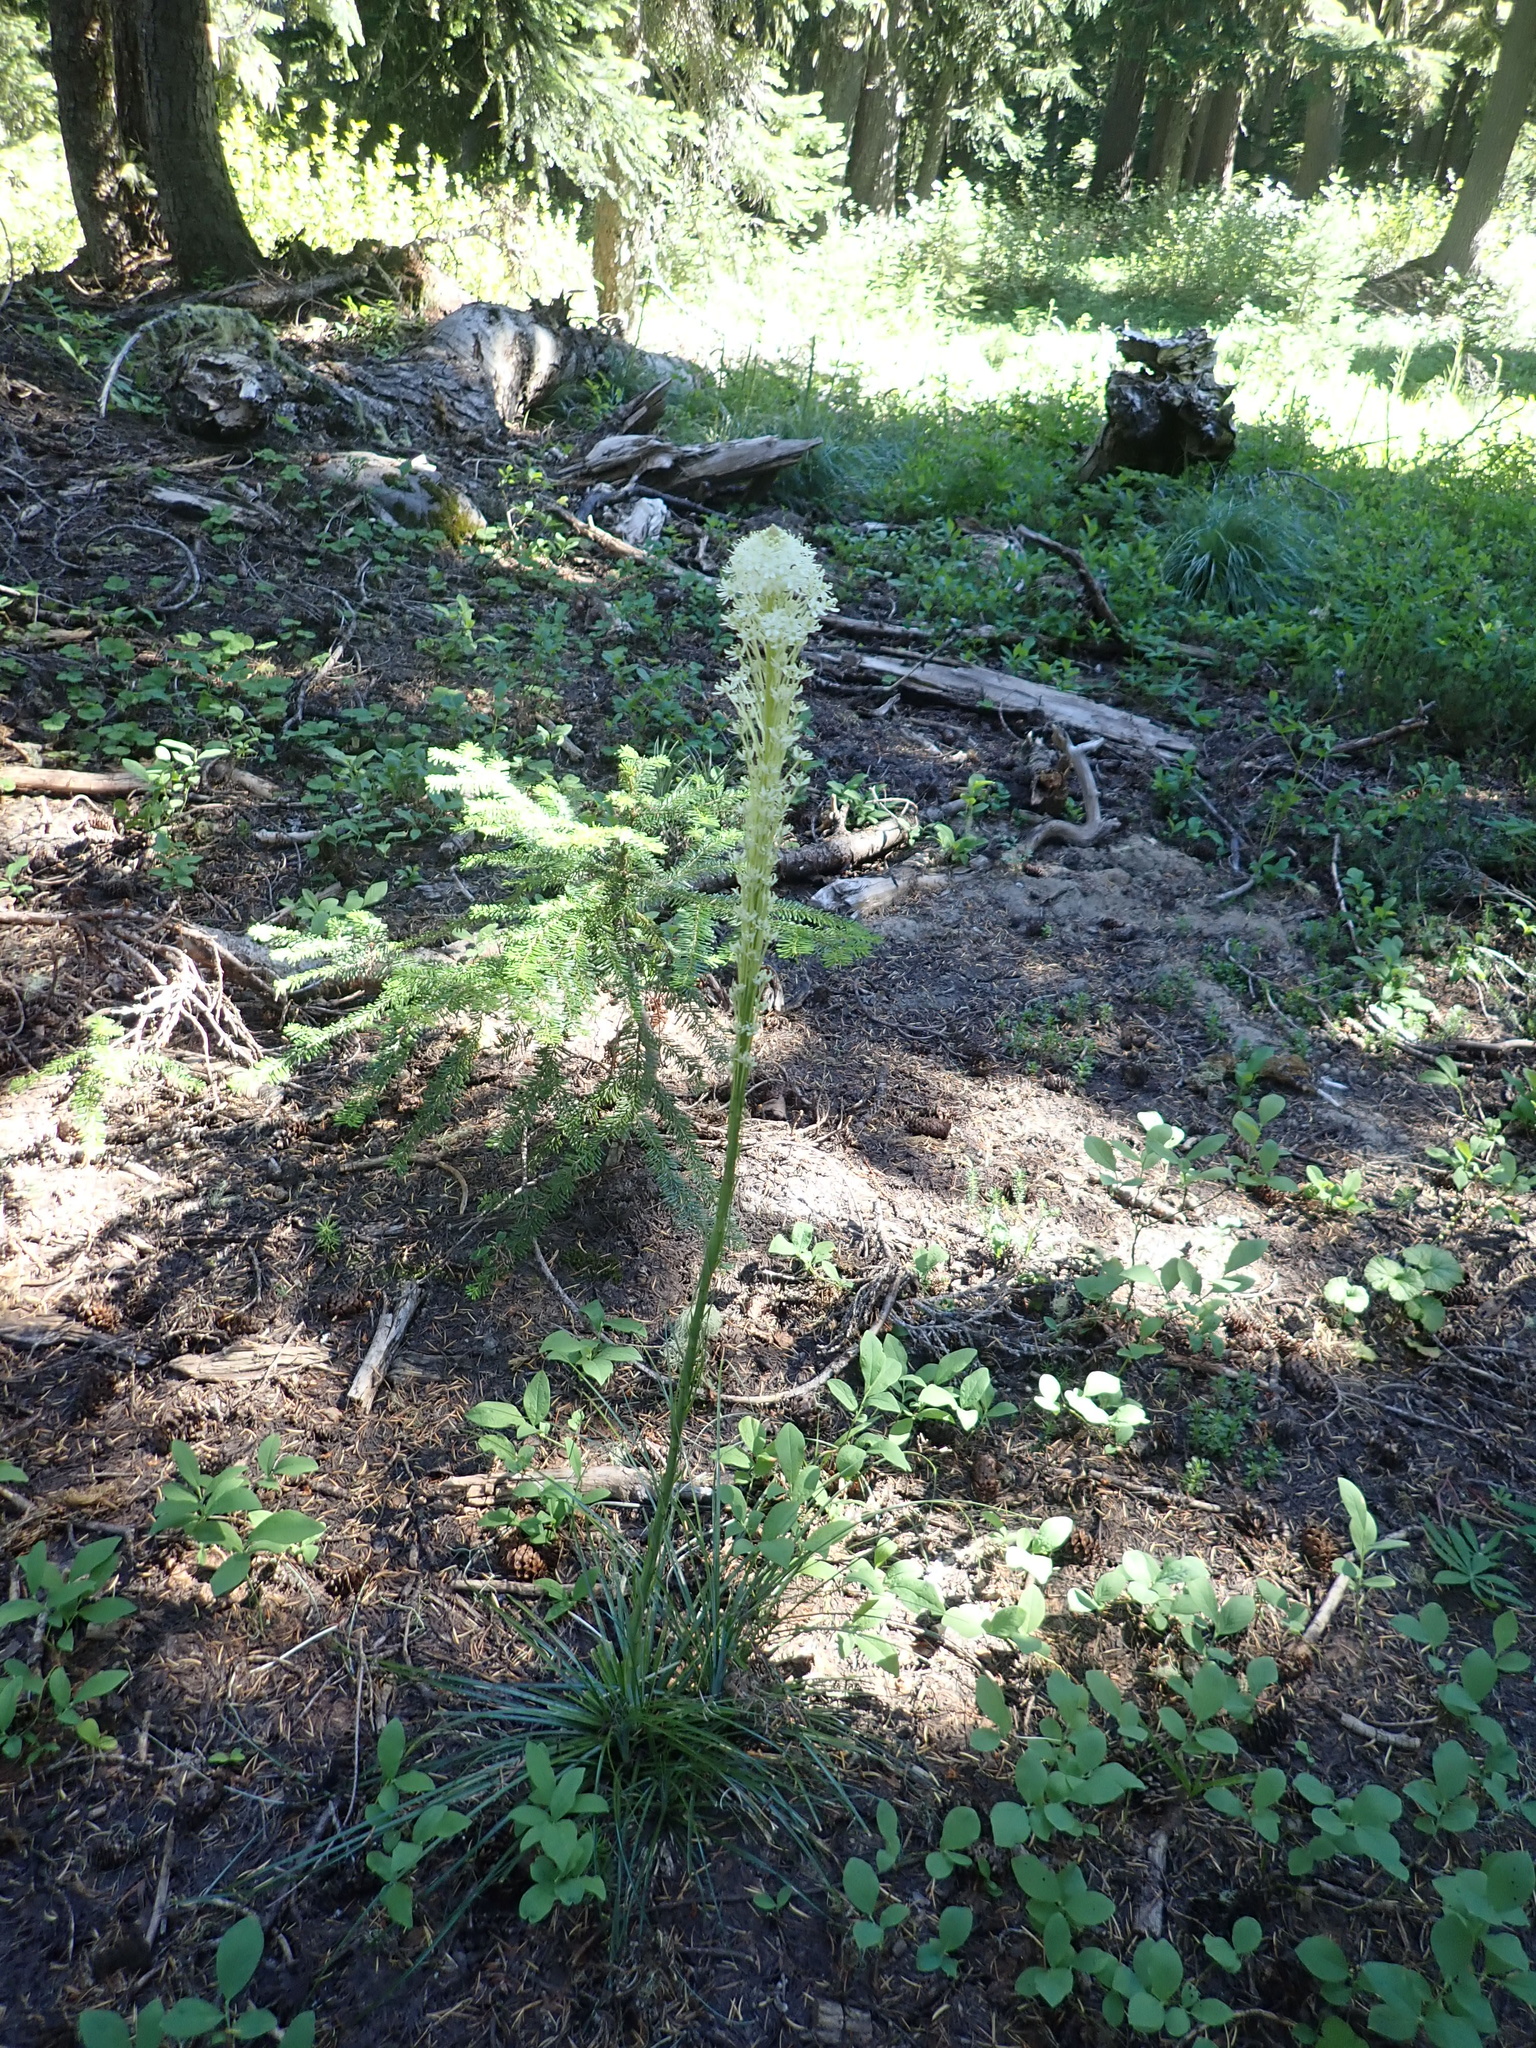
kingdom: Plantae
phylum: Tracheophyta
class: Liliopsida
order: Liliales
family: Melanthiaceae
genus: Xerophyllum
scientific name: Xerophyllum tenax
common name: Bear-grass
